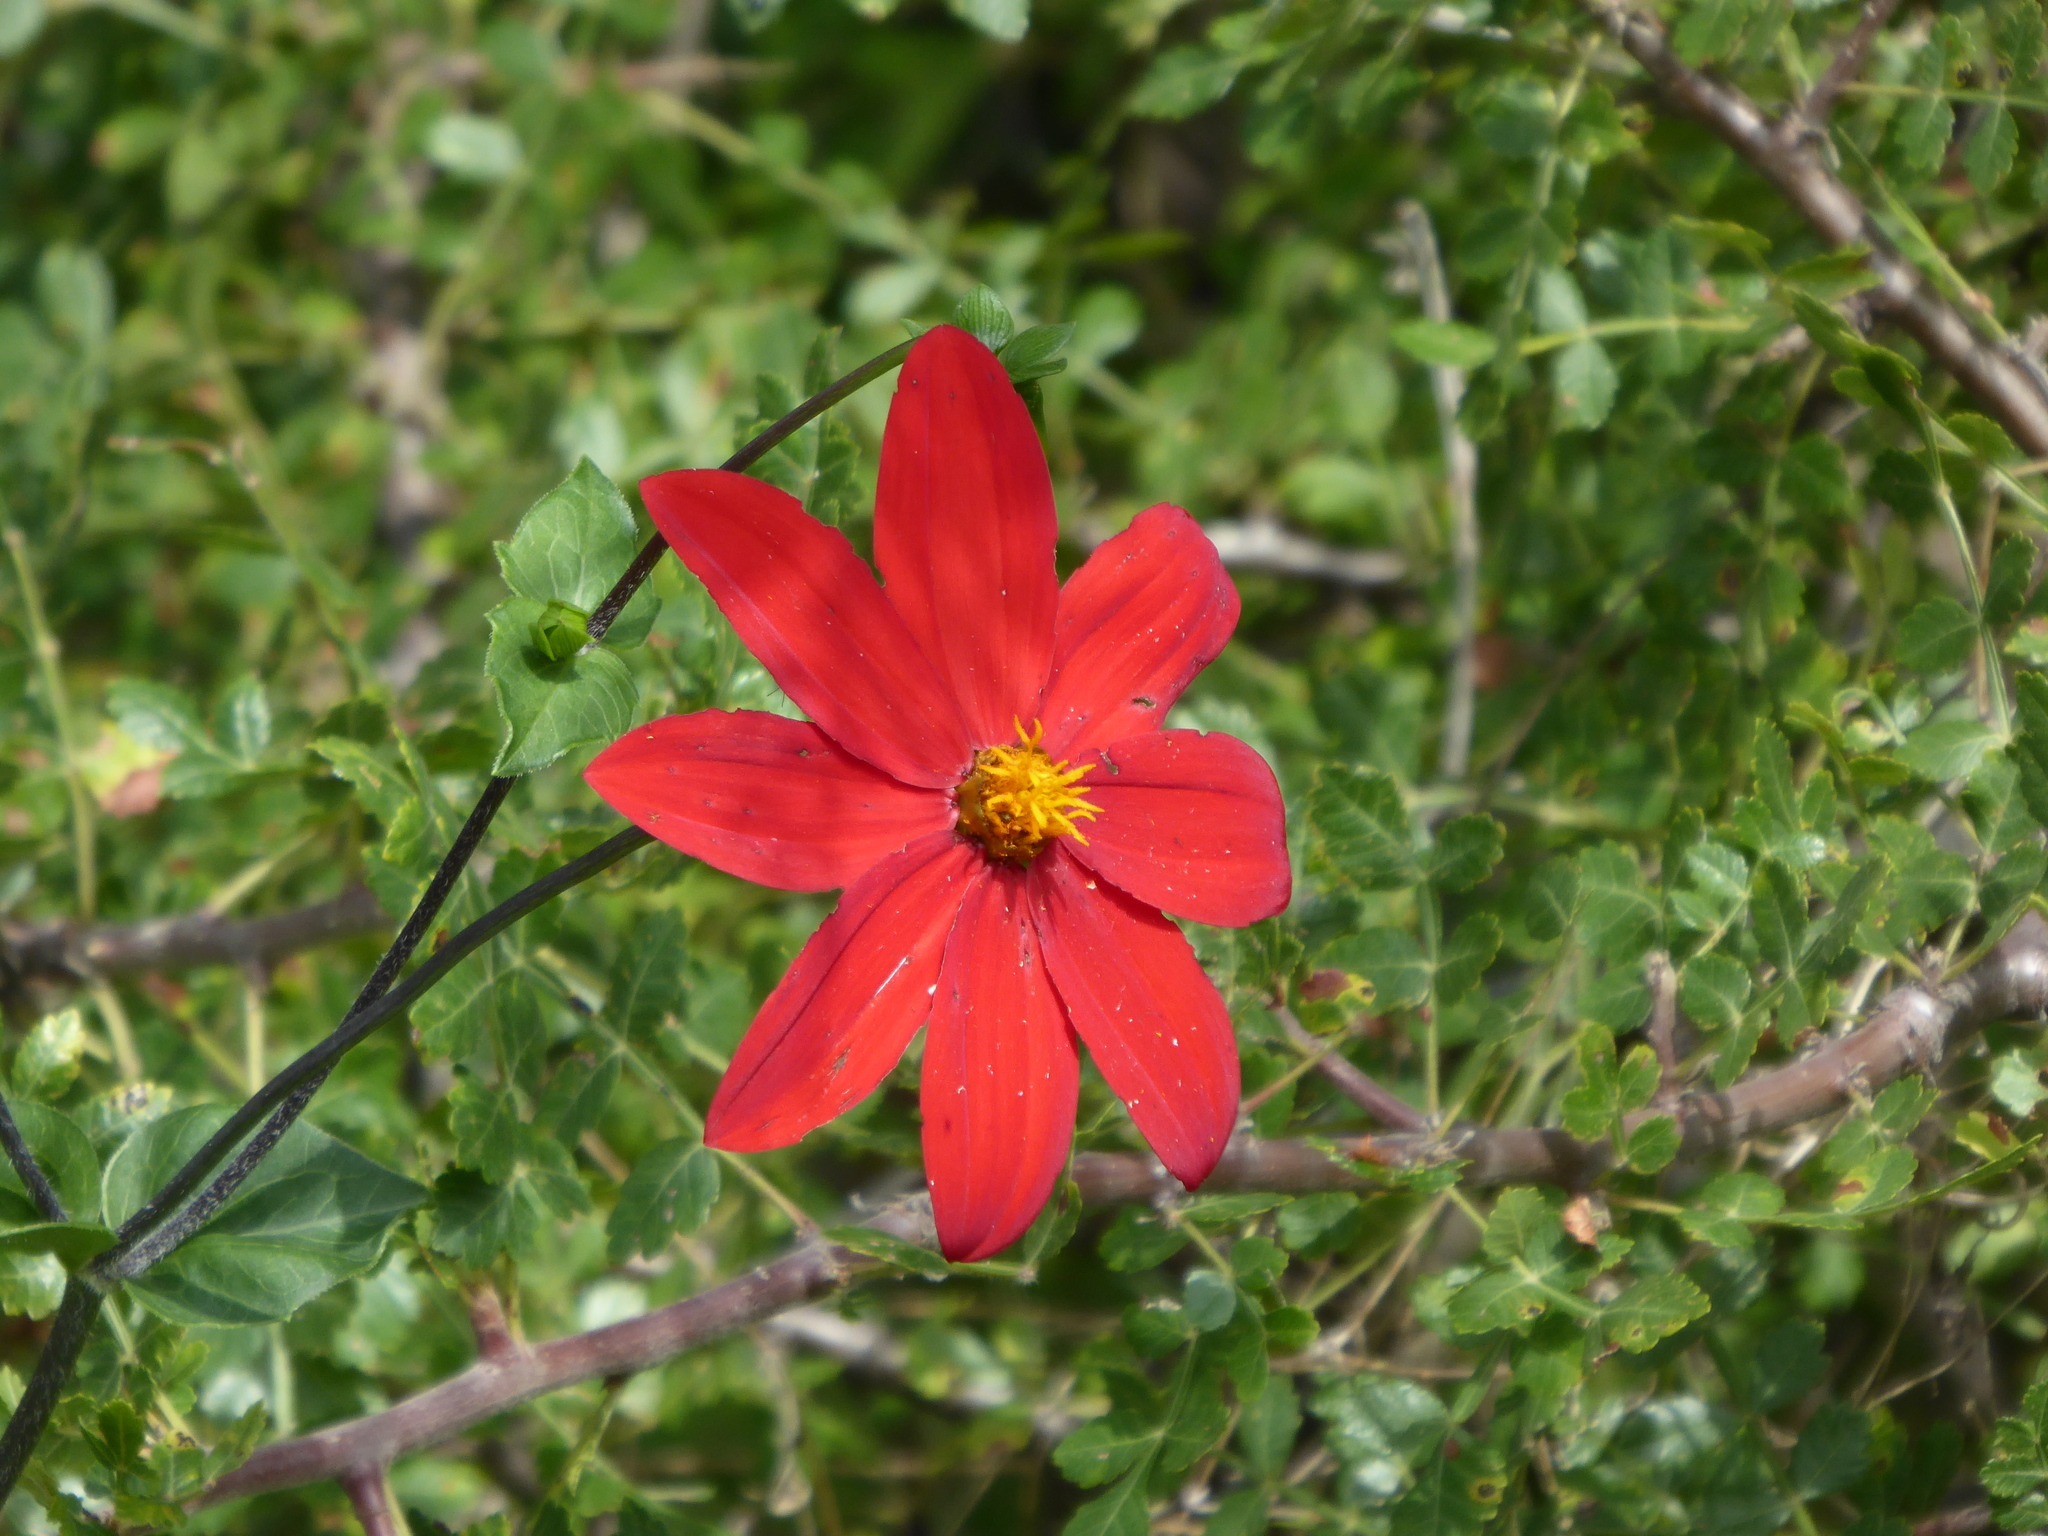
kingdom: Plantae
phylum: Tracheophyta
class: Magnoliopsida
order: Asterales
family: Asteraceae
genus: Dahlia
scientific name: Dahlia coccinea
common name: Red dahlia
